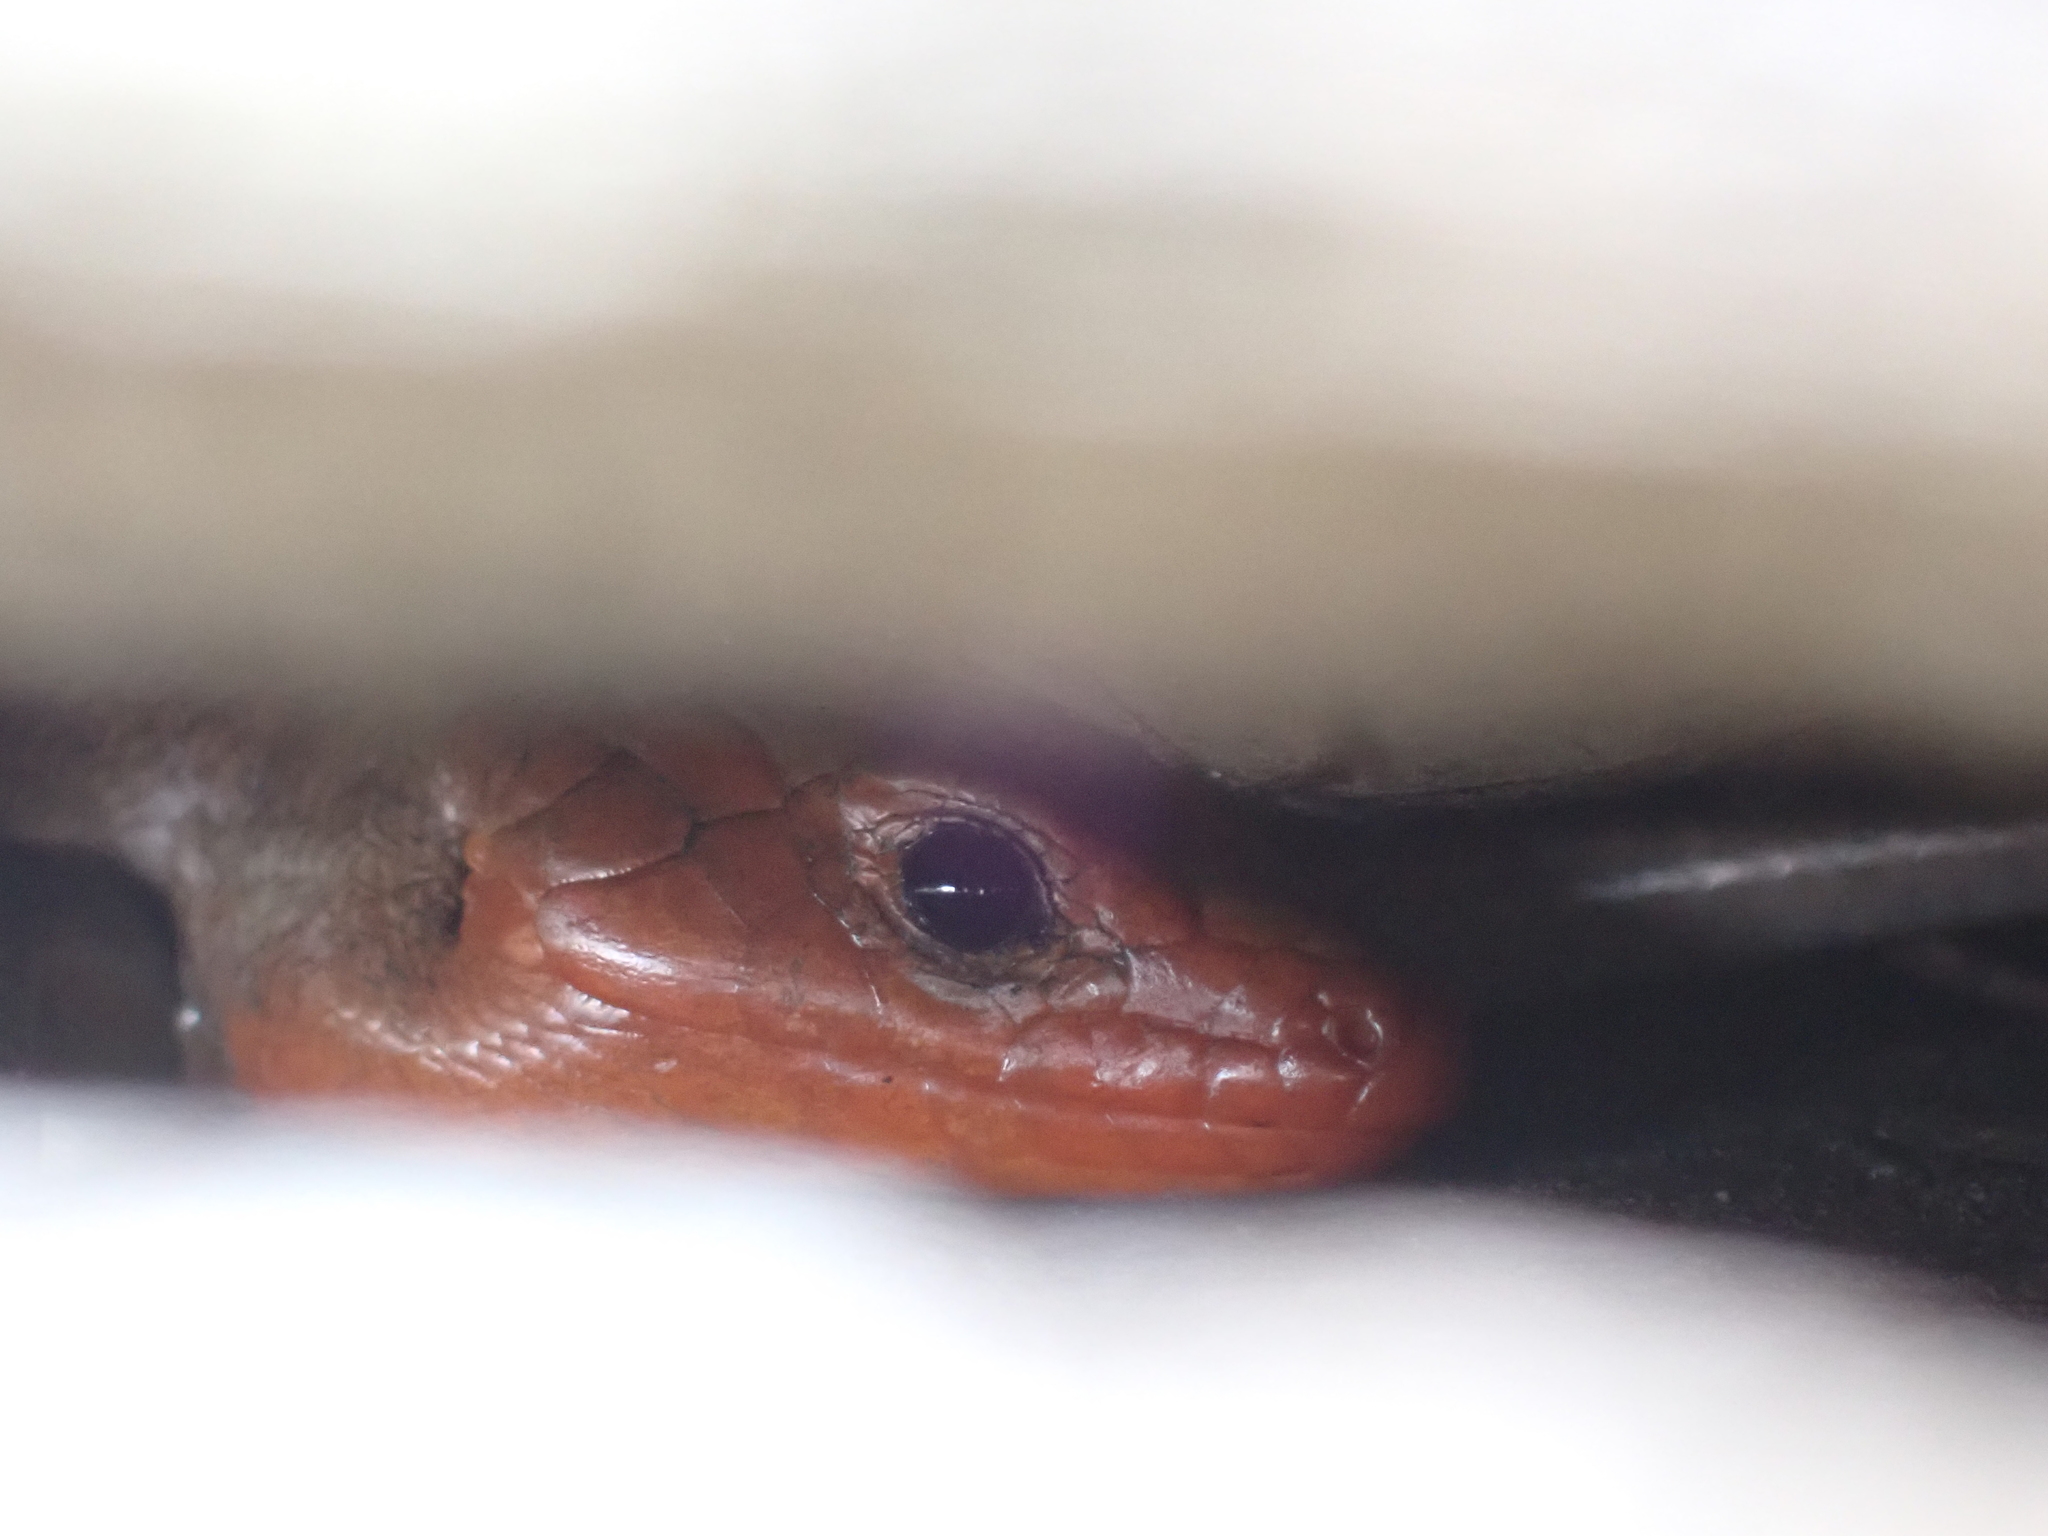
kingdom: Animalia
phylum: Chordata
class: Squamata
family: Scincidae
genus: Plestiodon
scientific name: Plestiodon fasciatus
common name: Five-lined skink
